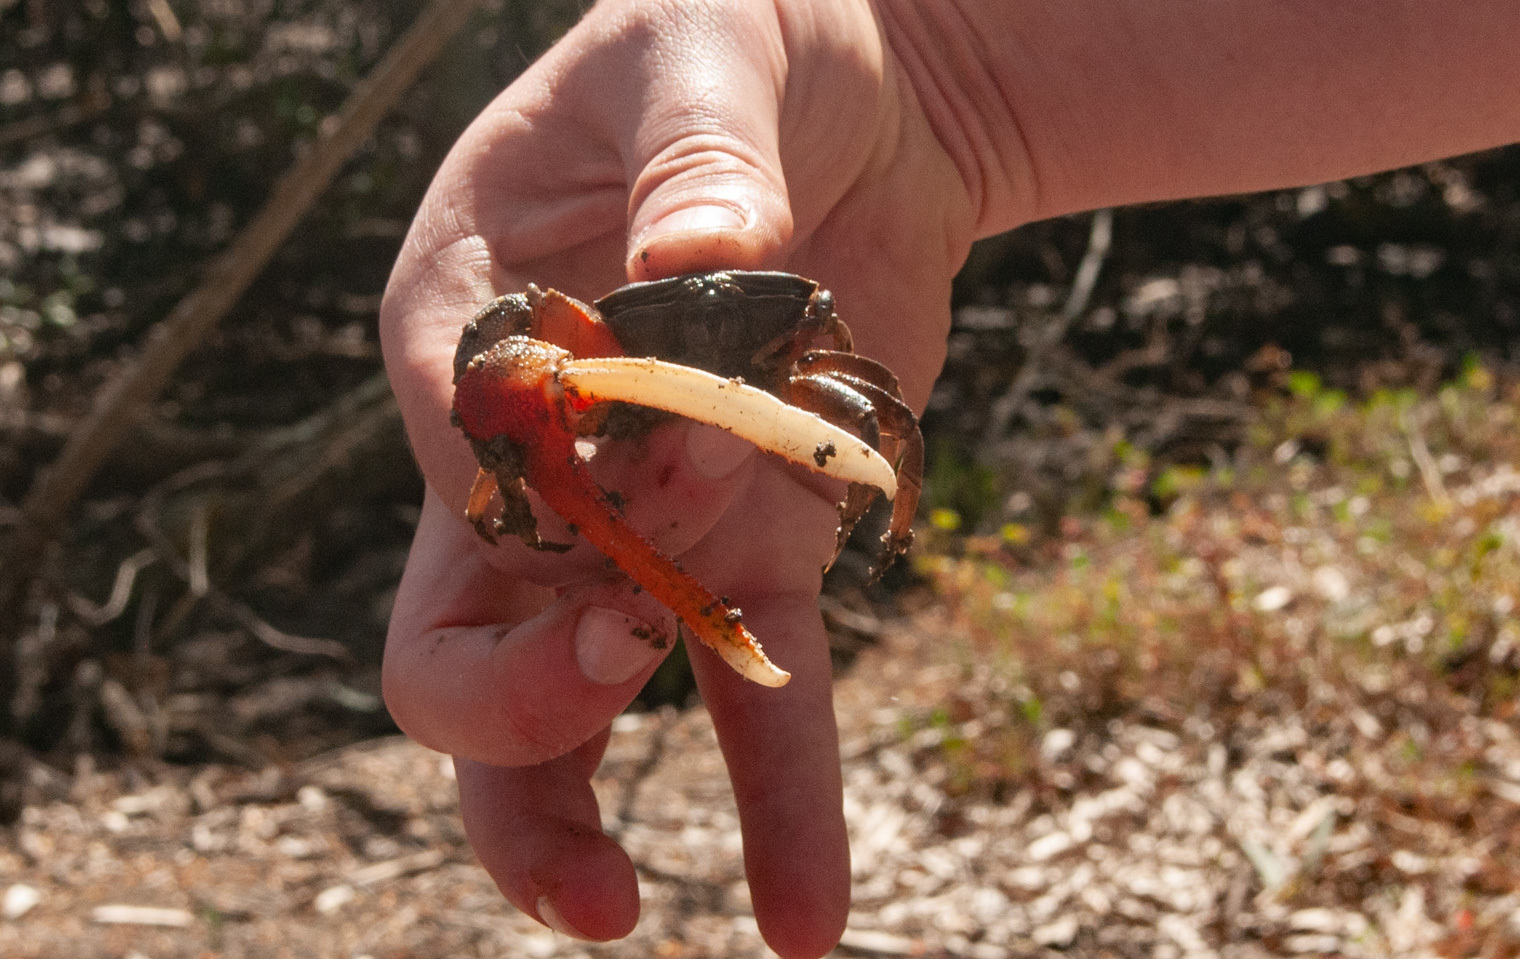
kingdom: Animalia
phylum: Arthropoda
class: Malacostraca
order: Decapoda
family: Ocypodidae
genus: Tubuca
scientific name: Tubuca dussumieri
